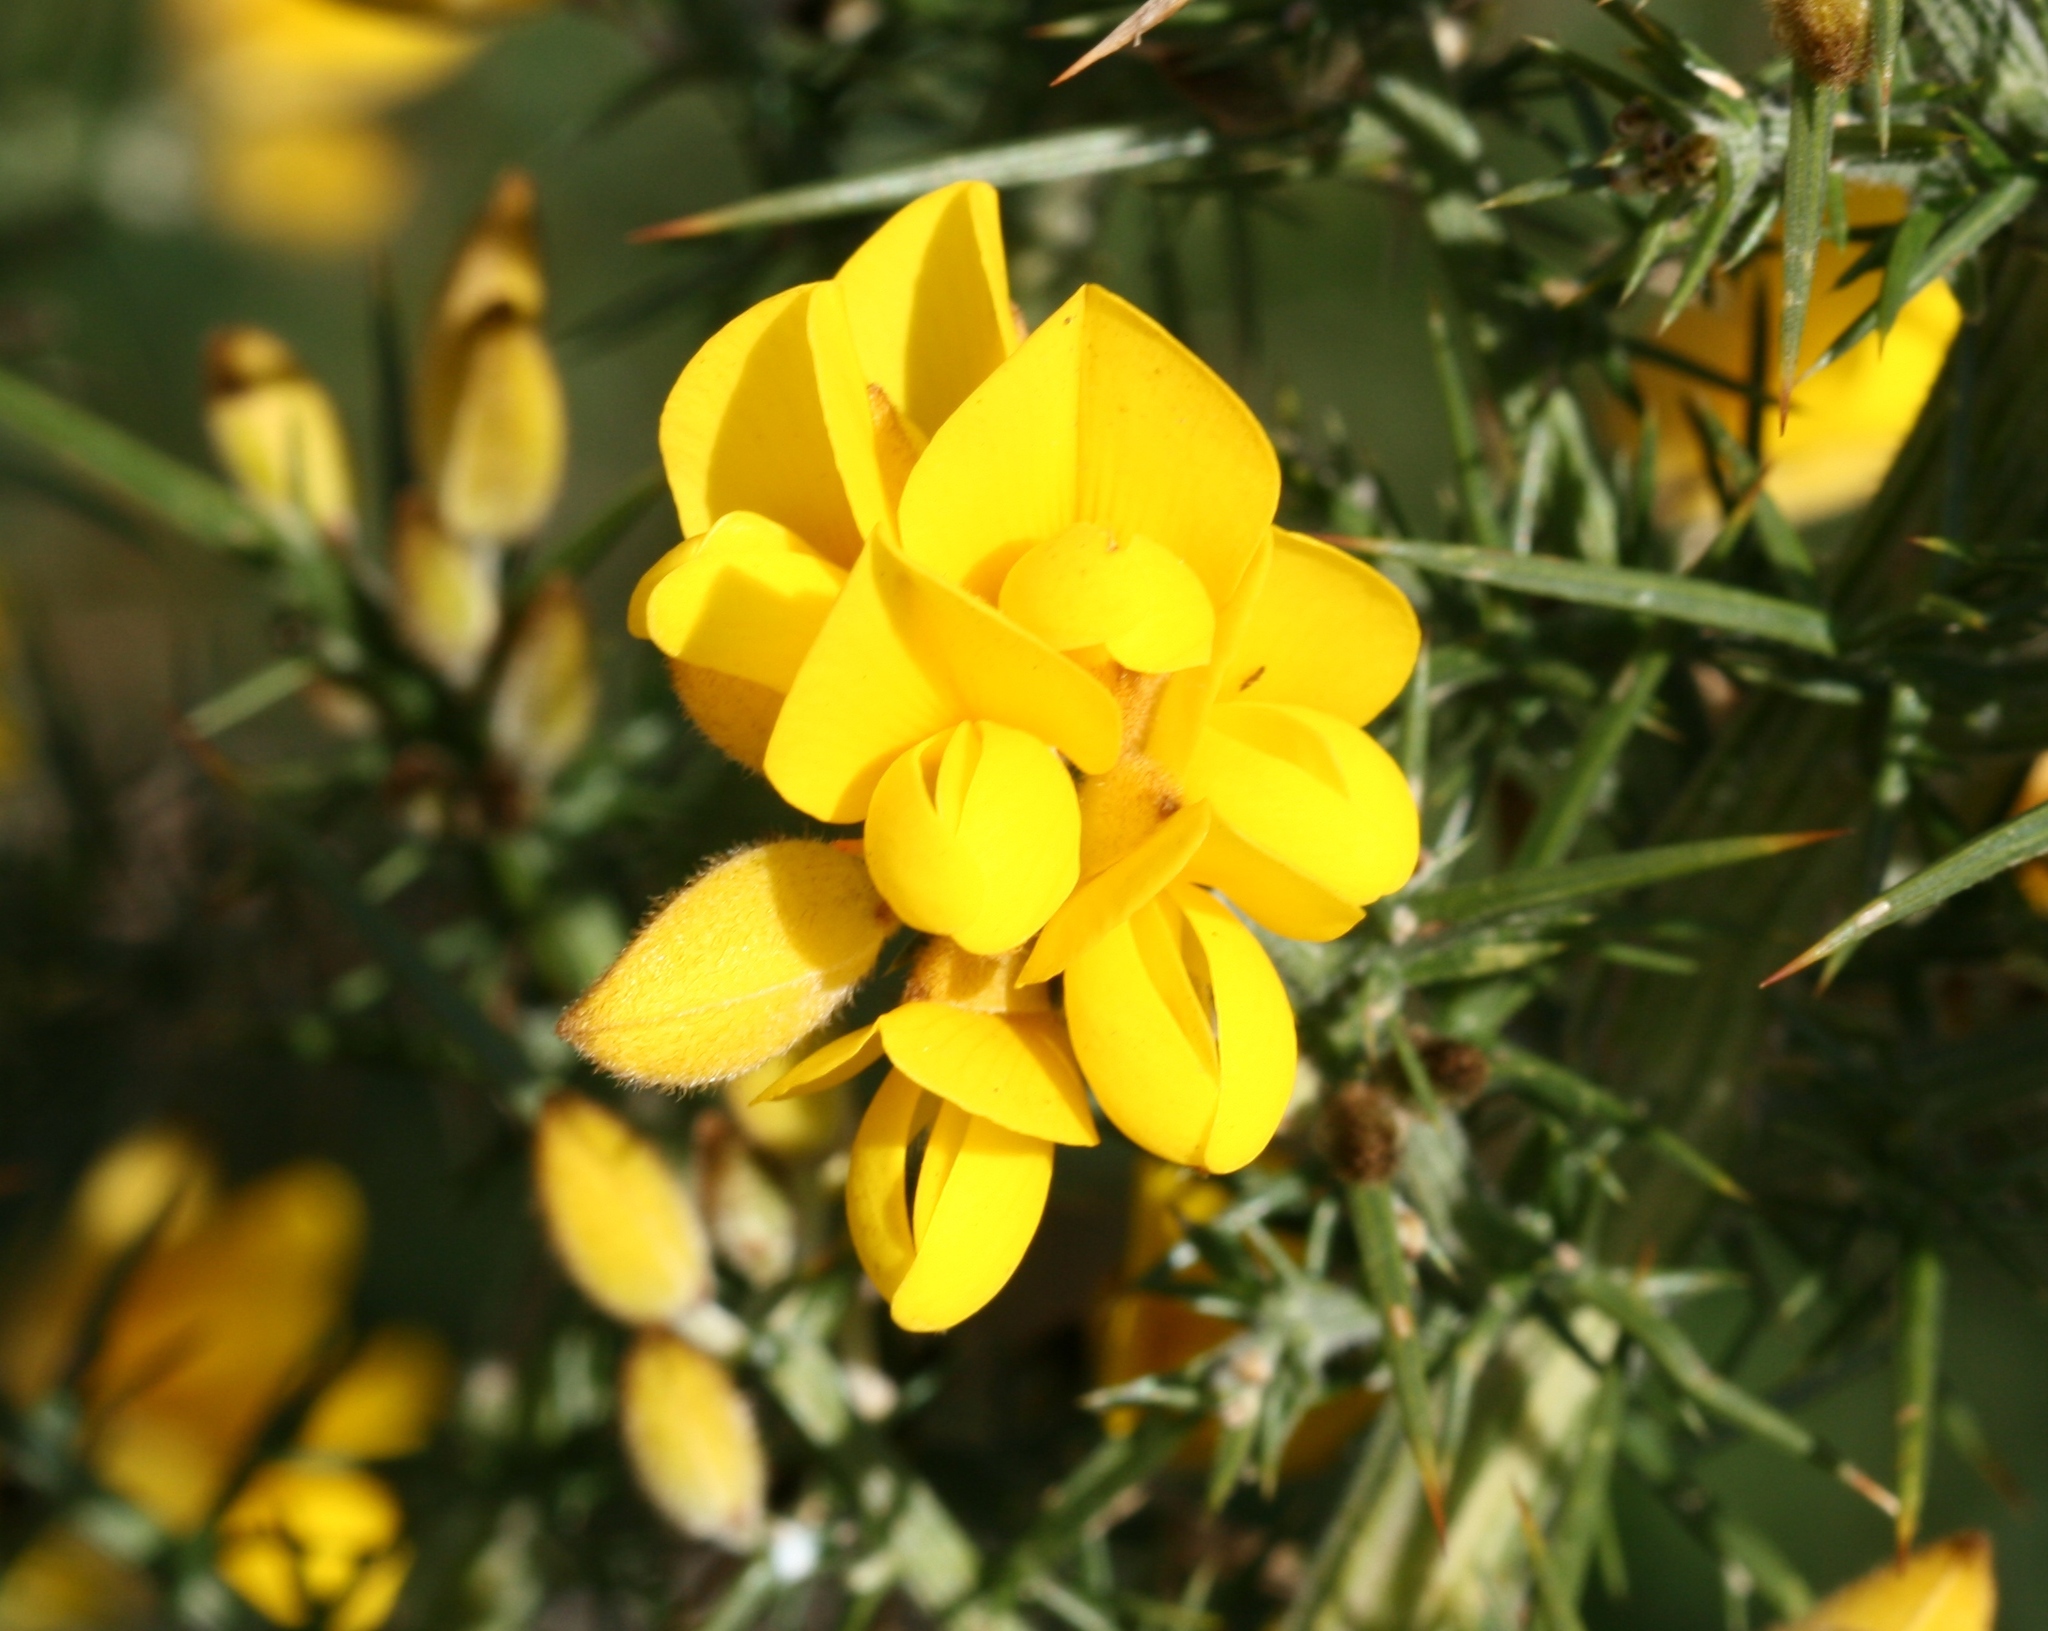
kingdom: Plantae
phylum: Tracheophyta
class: Magnoliopsida
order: Fabales
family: Fabaceae
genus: Ulex
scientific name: Ulex europaeus
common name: Common gorse
